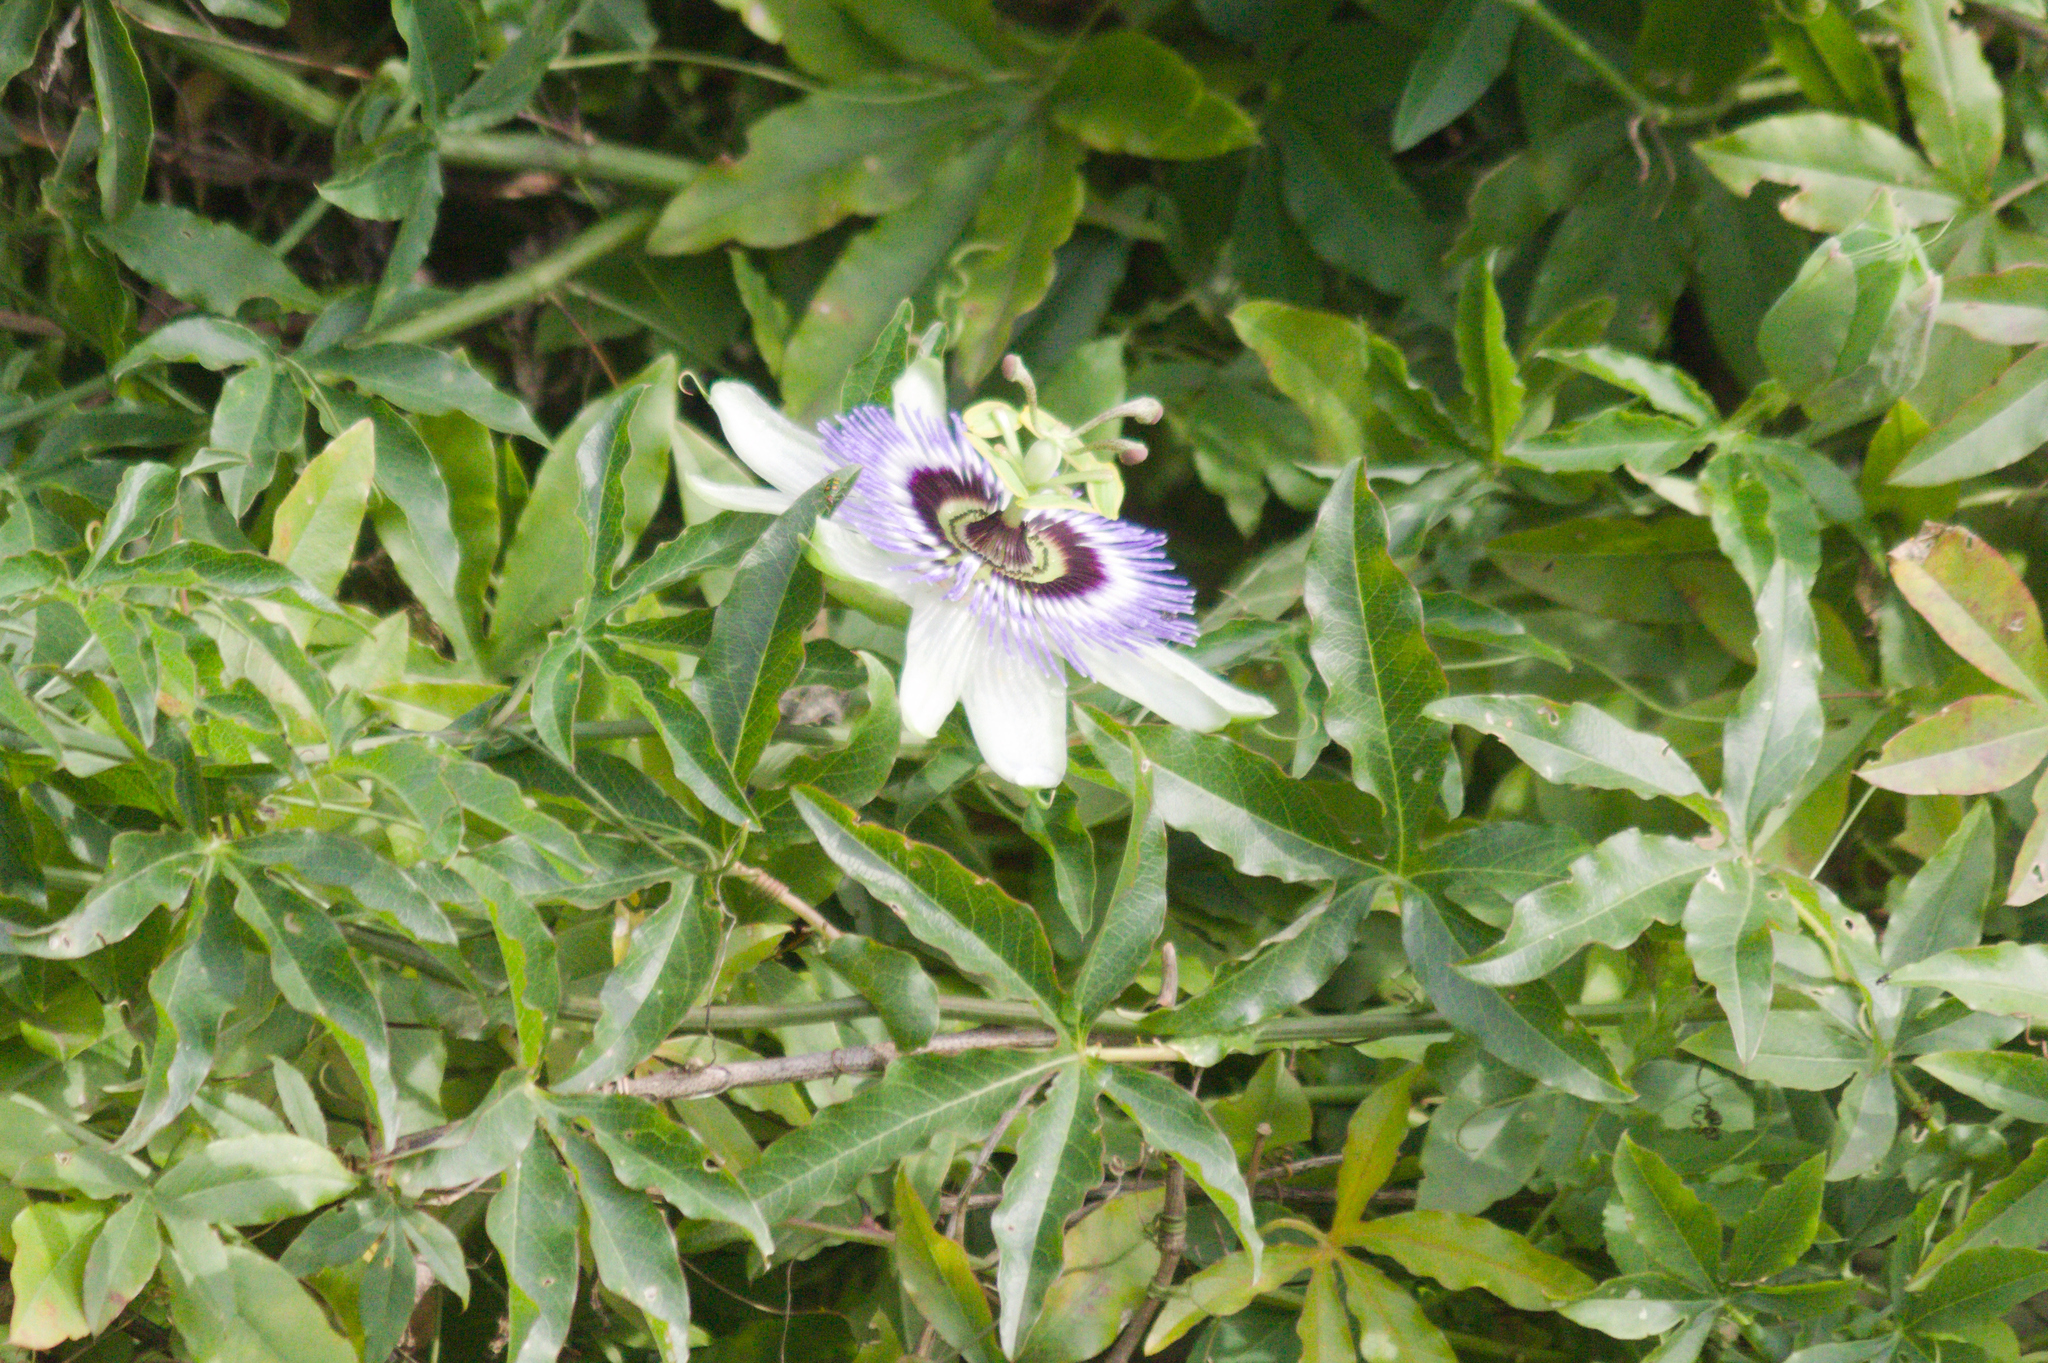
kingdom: Plantae
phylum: Tracheophyta
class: Magnoliopsida
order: Malpighiales
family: Passifloraceae
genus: Passiflora
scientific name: Passiflora caerulea
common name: Blue passionflower
